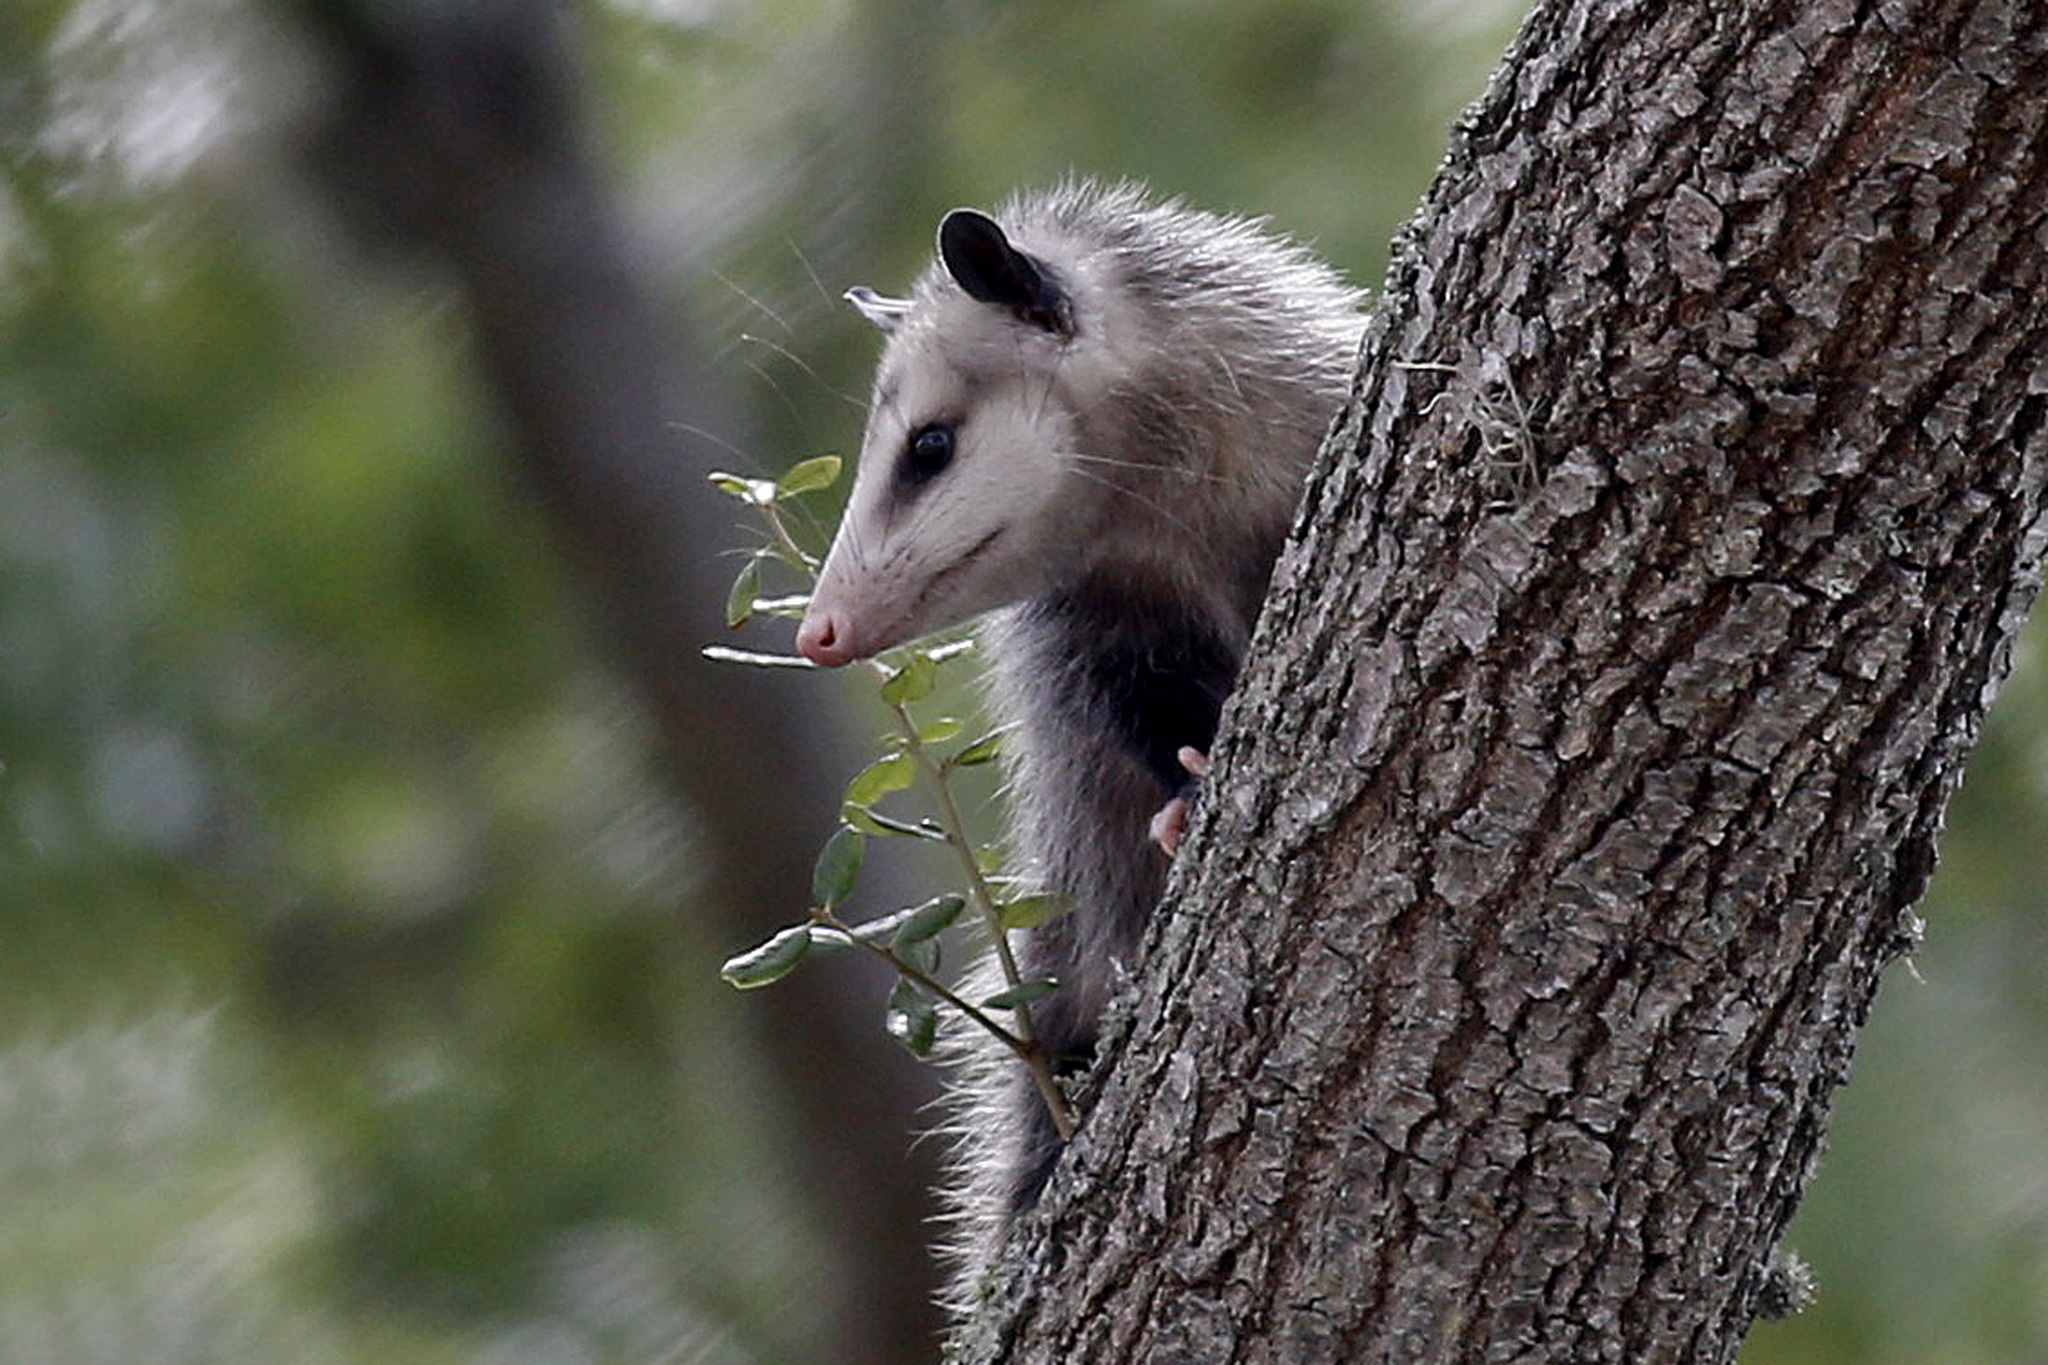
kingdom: Animalia
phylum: Chordata
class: Mammalia
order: Didelphimorphia
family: Didelphidae
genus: Didelphis
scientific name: Didelphis virginiana
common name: Virginia opossum
